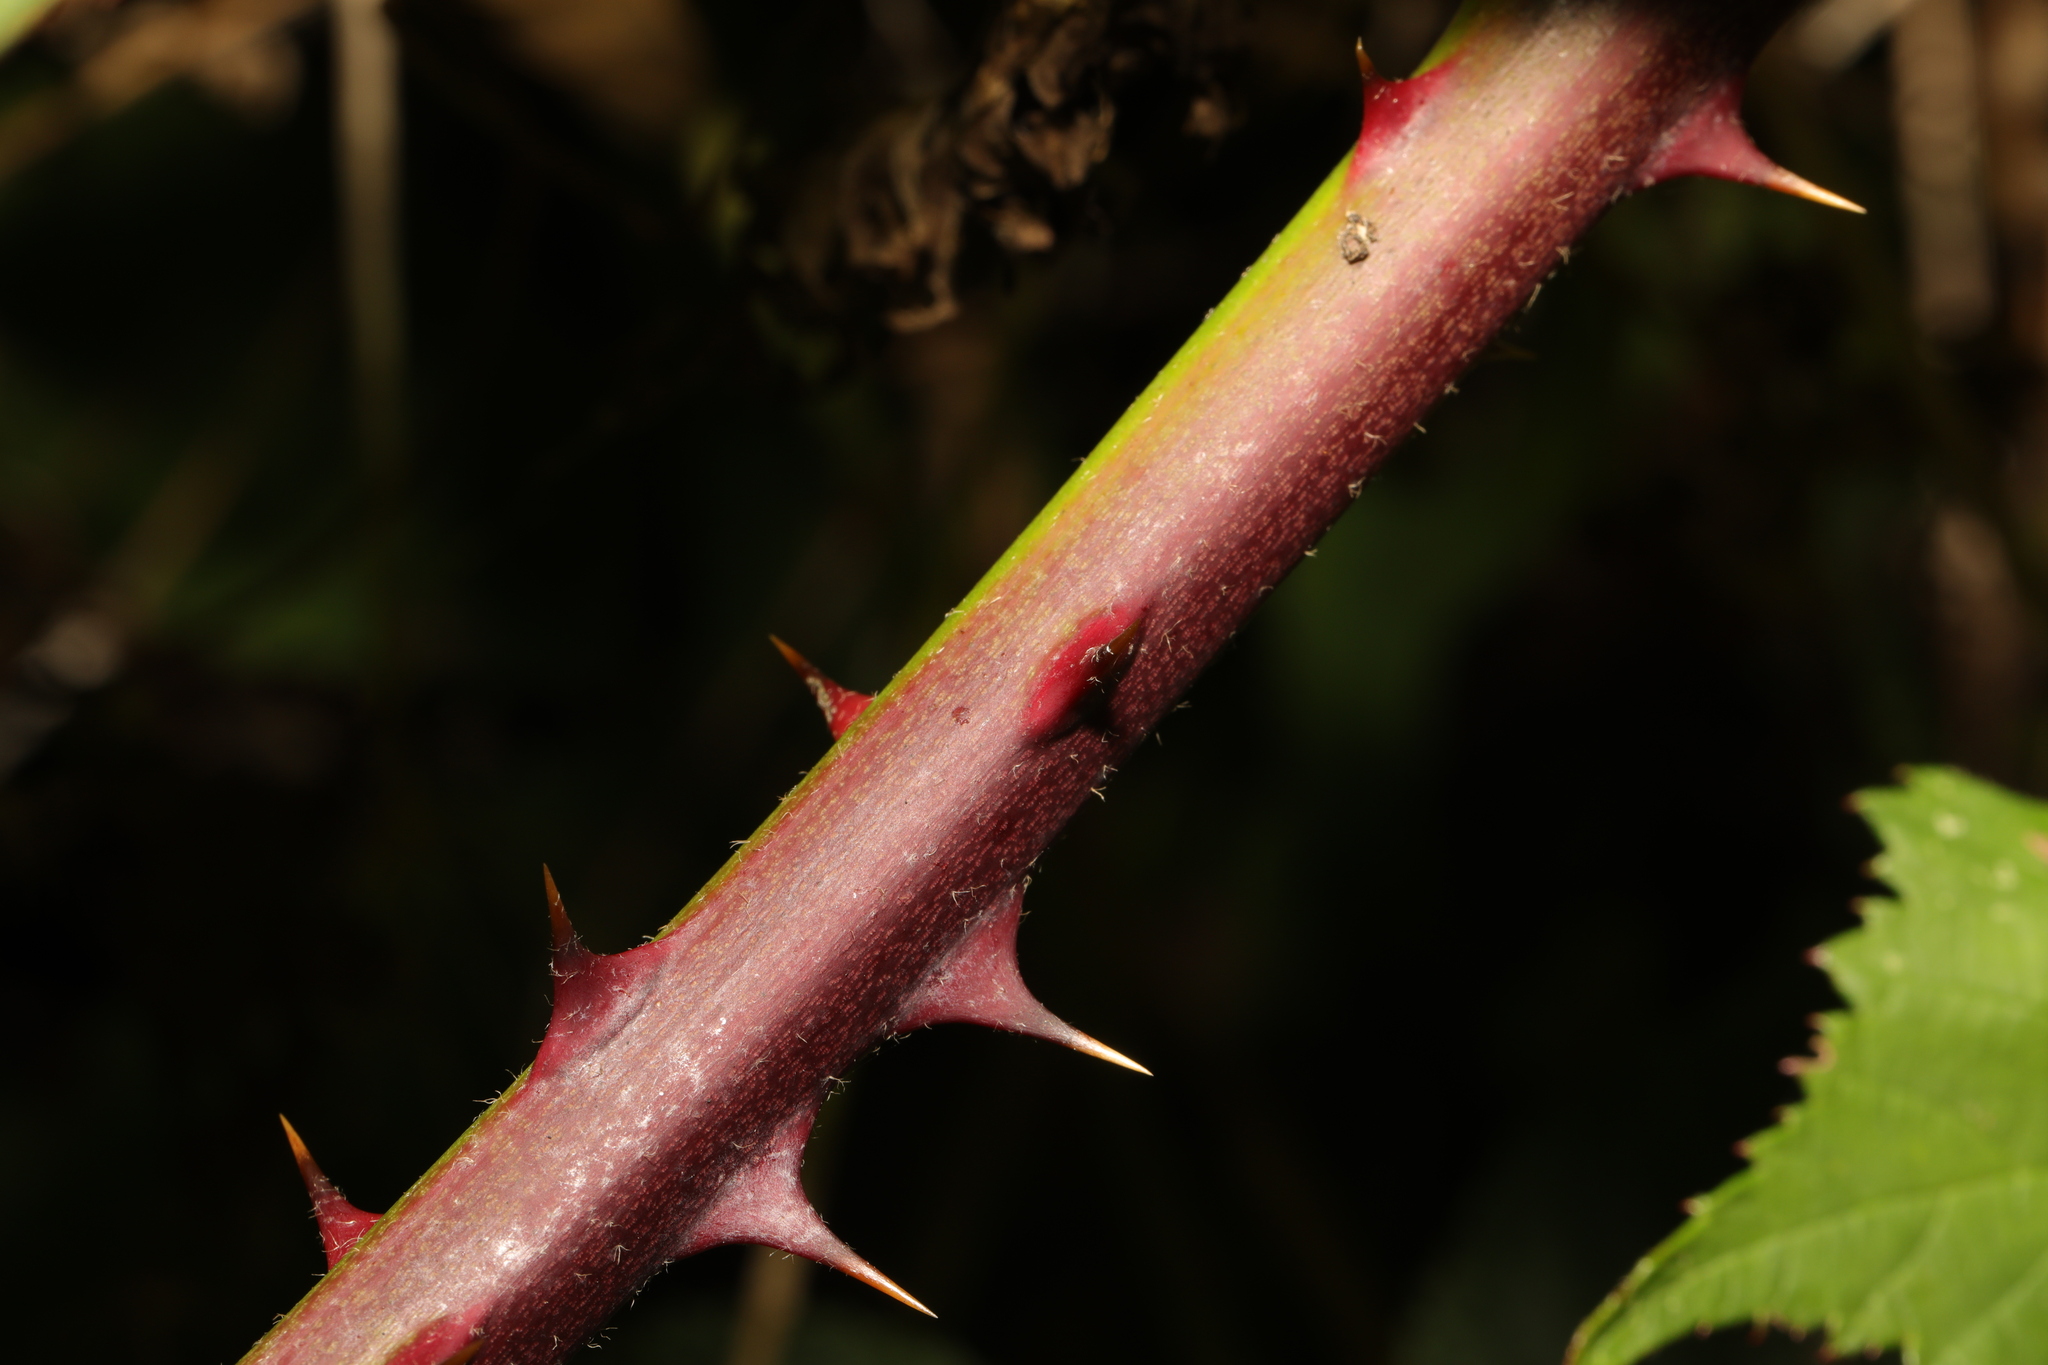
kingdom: Plantae
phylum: Tracheophyta
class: Magnoliopsida
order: Rosales
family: Rosaceae
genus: Rubus
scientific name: Rubus armeniacus
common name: Himalayan blackberry
